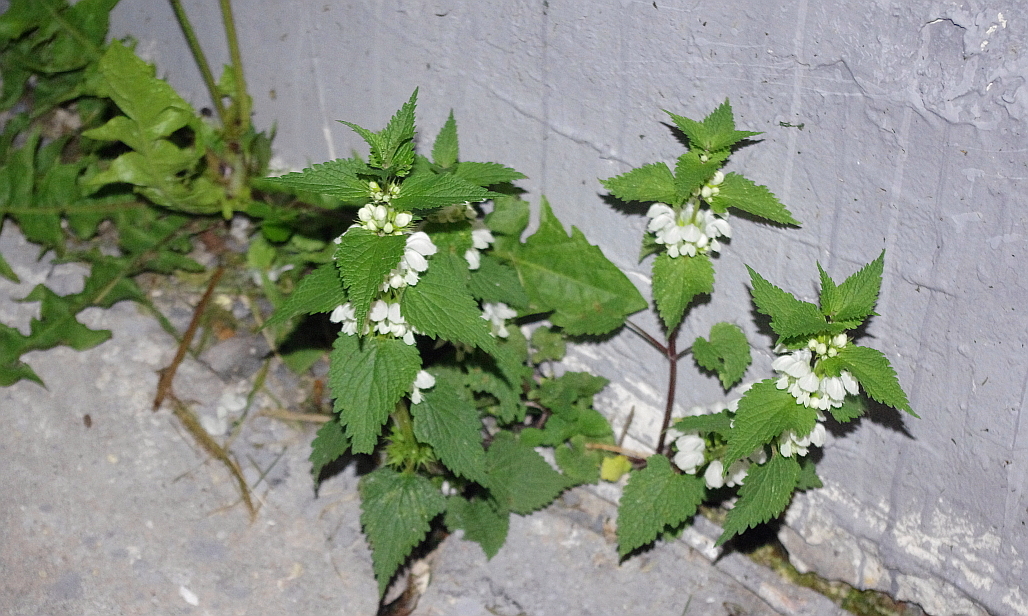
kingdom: Plantae
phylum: Tracheophyta
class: Magnoliopsida
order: Lamiales
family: Lamiaceae
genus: Lamium
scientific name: Lamium album
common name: White dead-nettle
